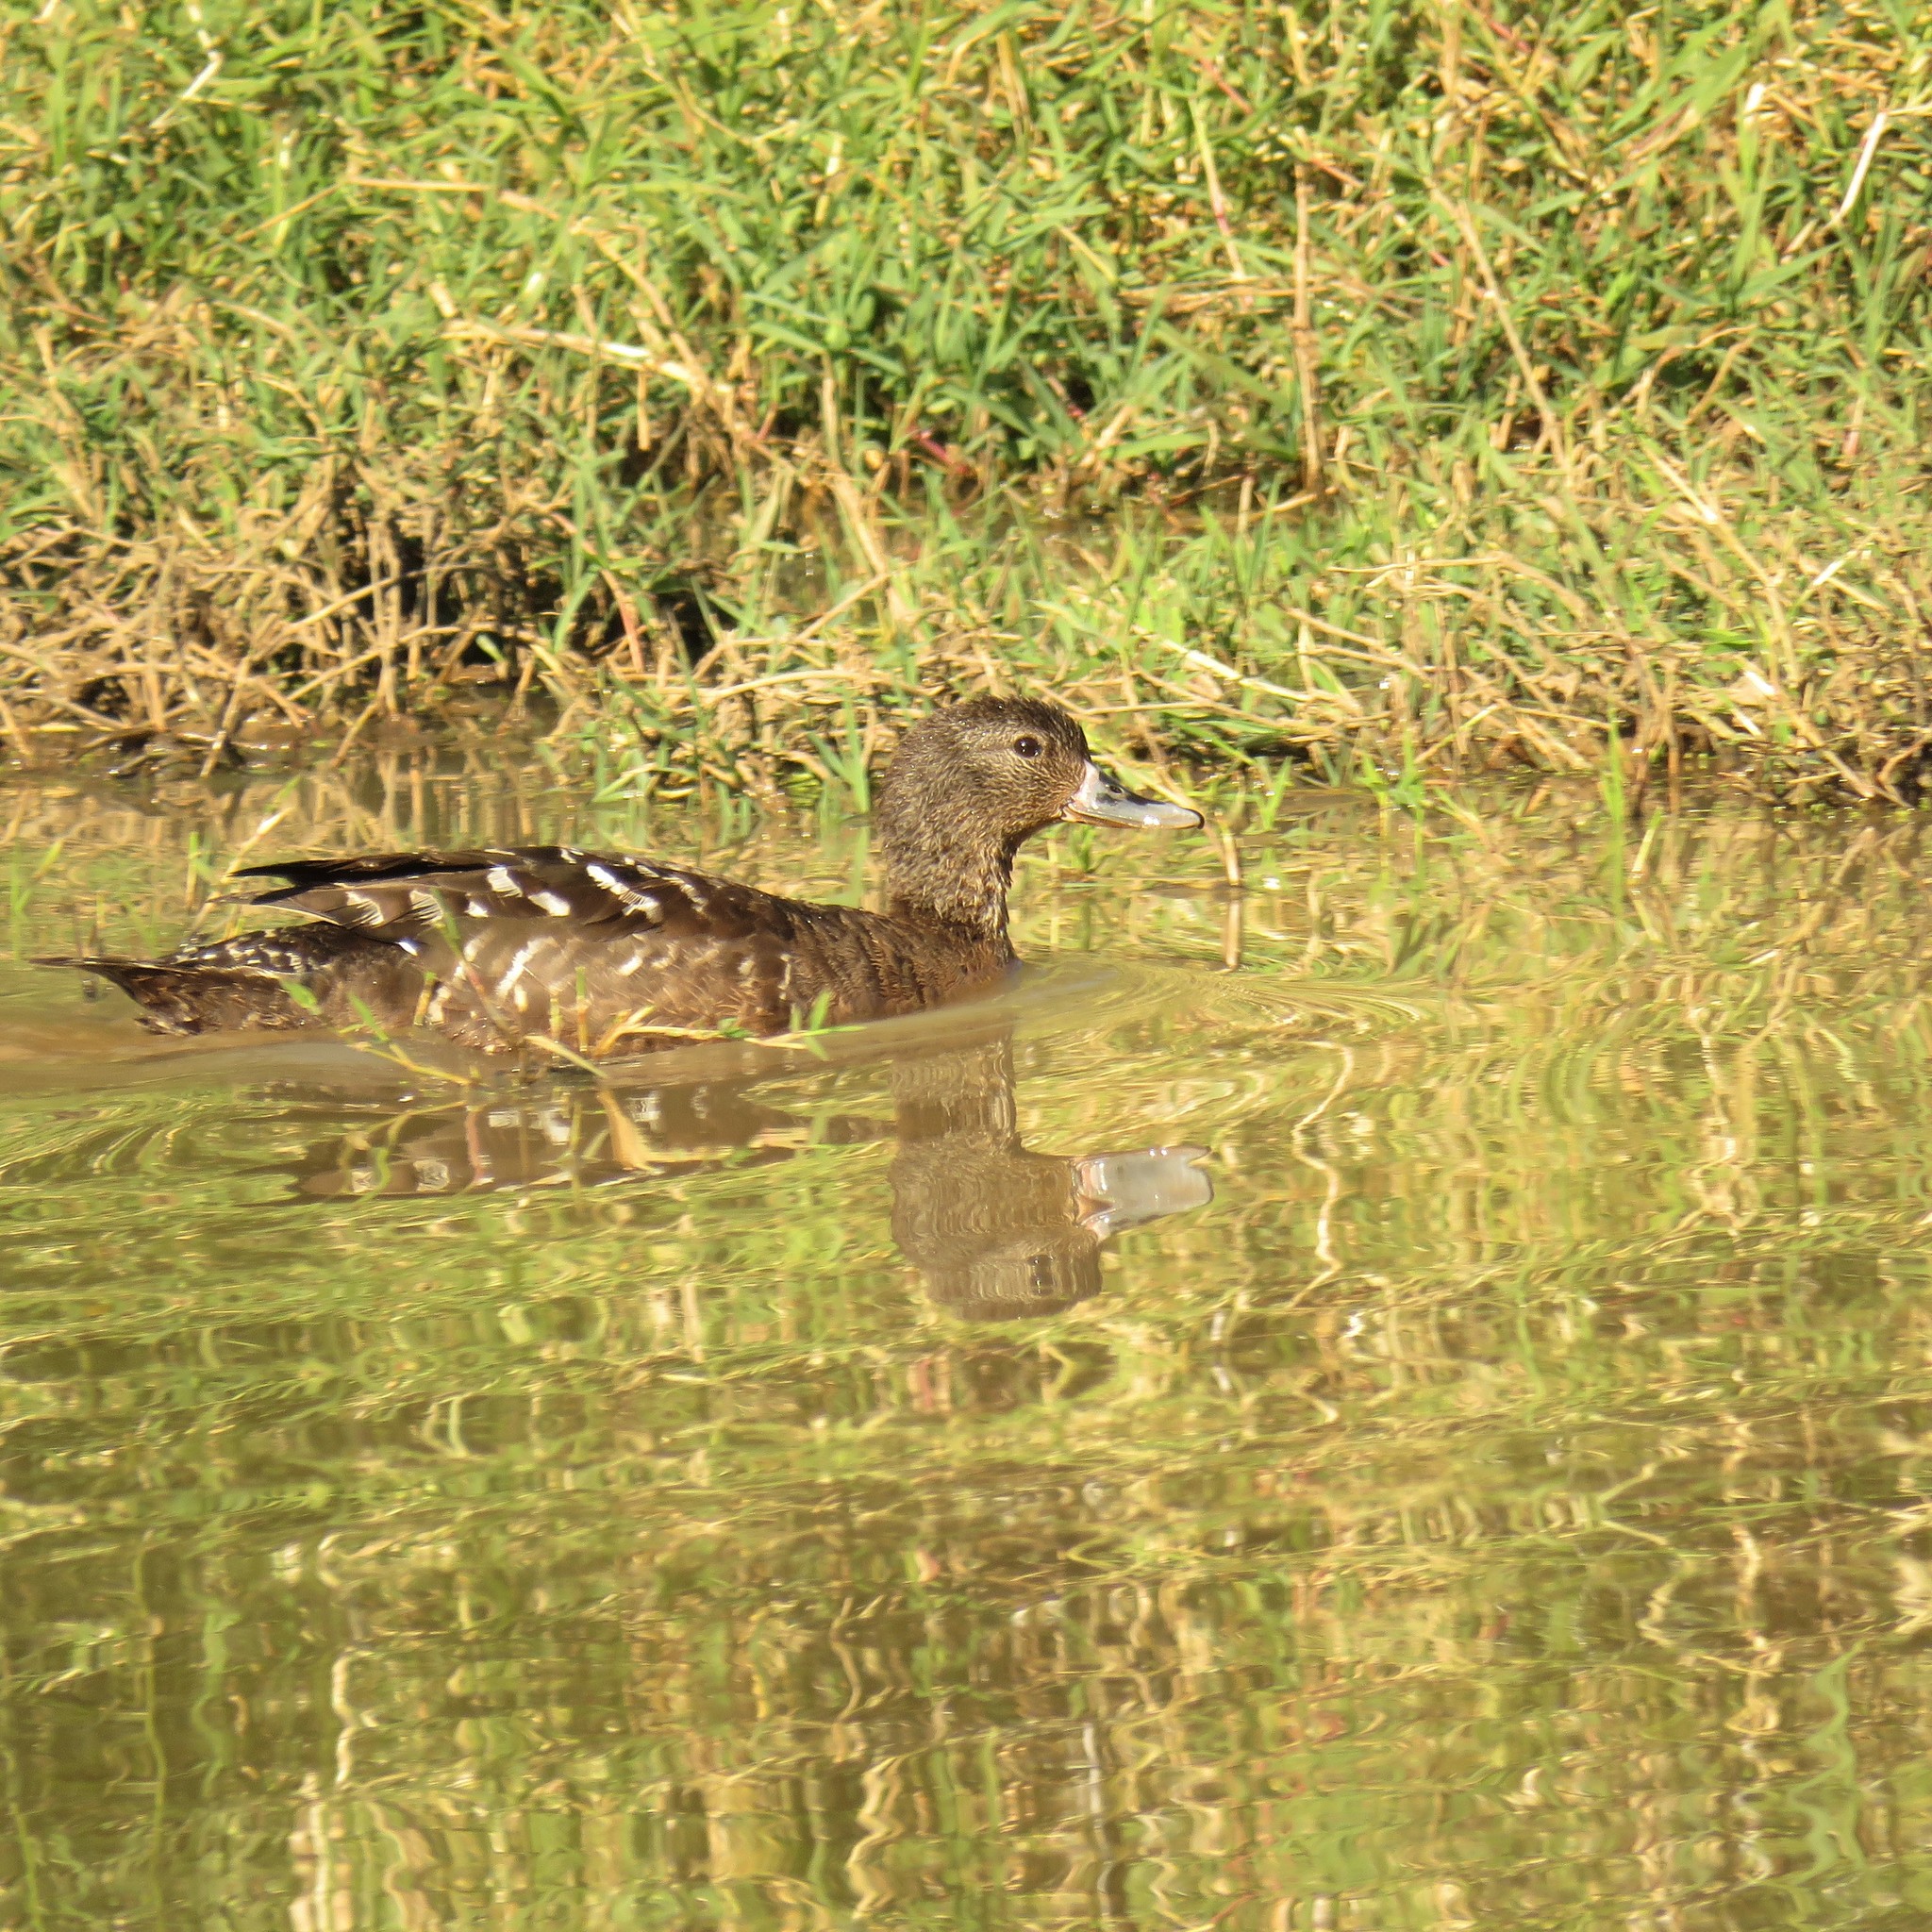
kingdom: Animalia
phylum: Chordata
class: Aves
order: Anseriformes
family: Anatidae
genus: Anas
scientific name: Anas sparsa
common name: African black duck
